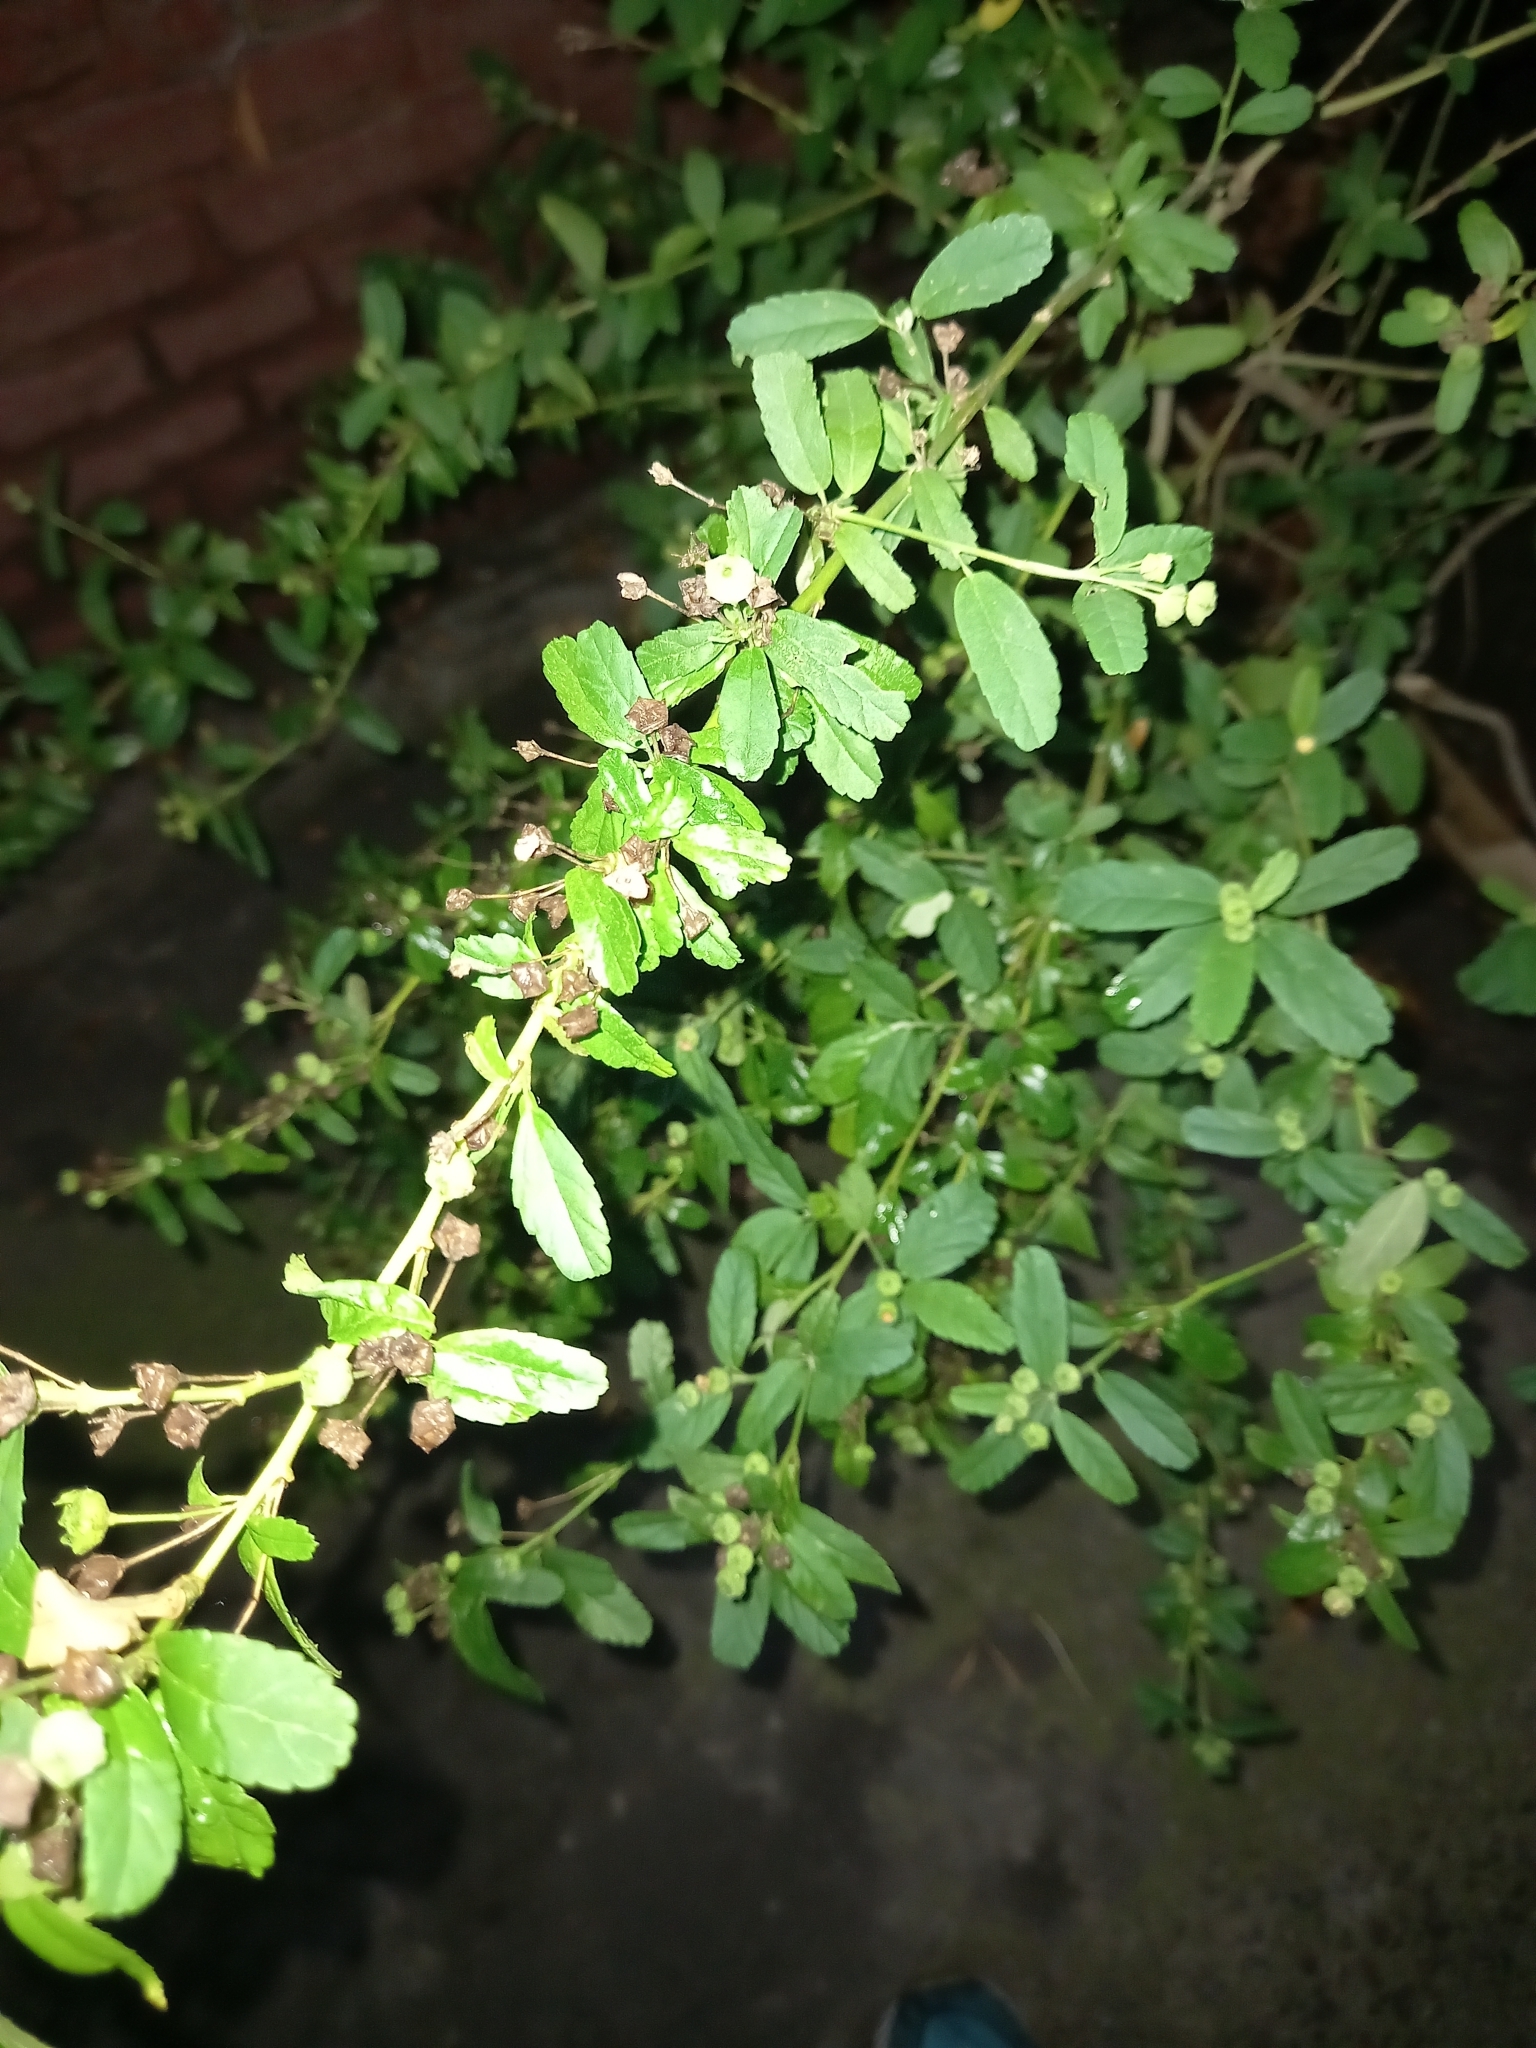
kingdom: Plantae
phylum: Tracheophyta
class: Magnoliopsida
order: Malvales
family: Malvaceae
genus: Sida
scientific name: Sida rhombifolia
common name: Queensland-hemp
